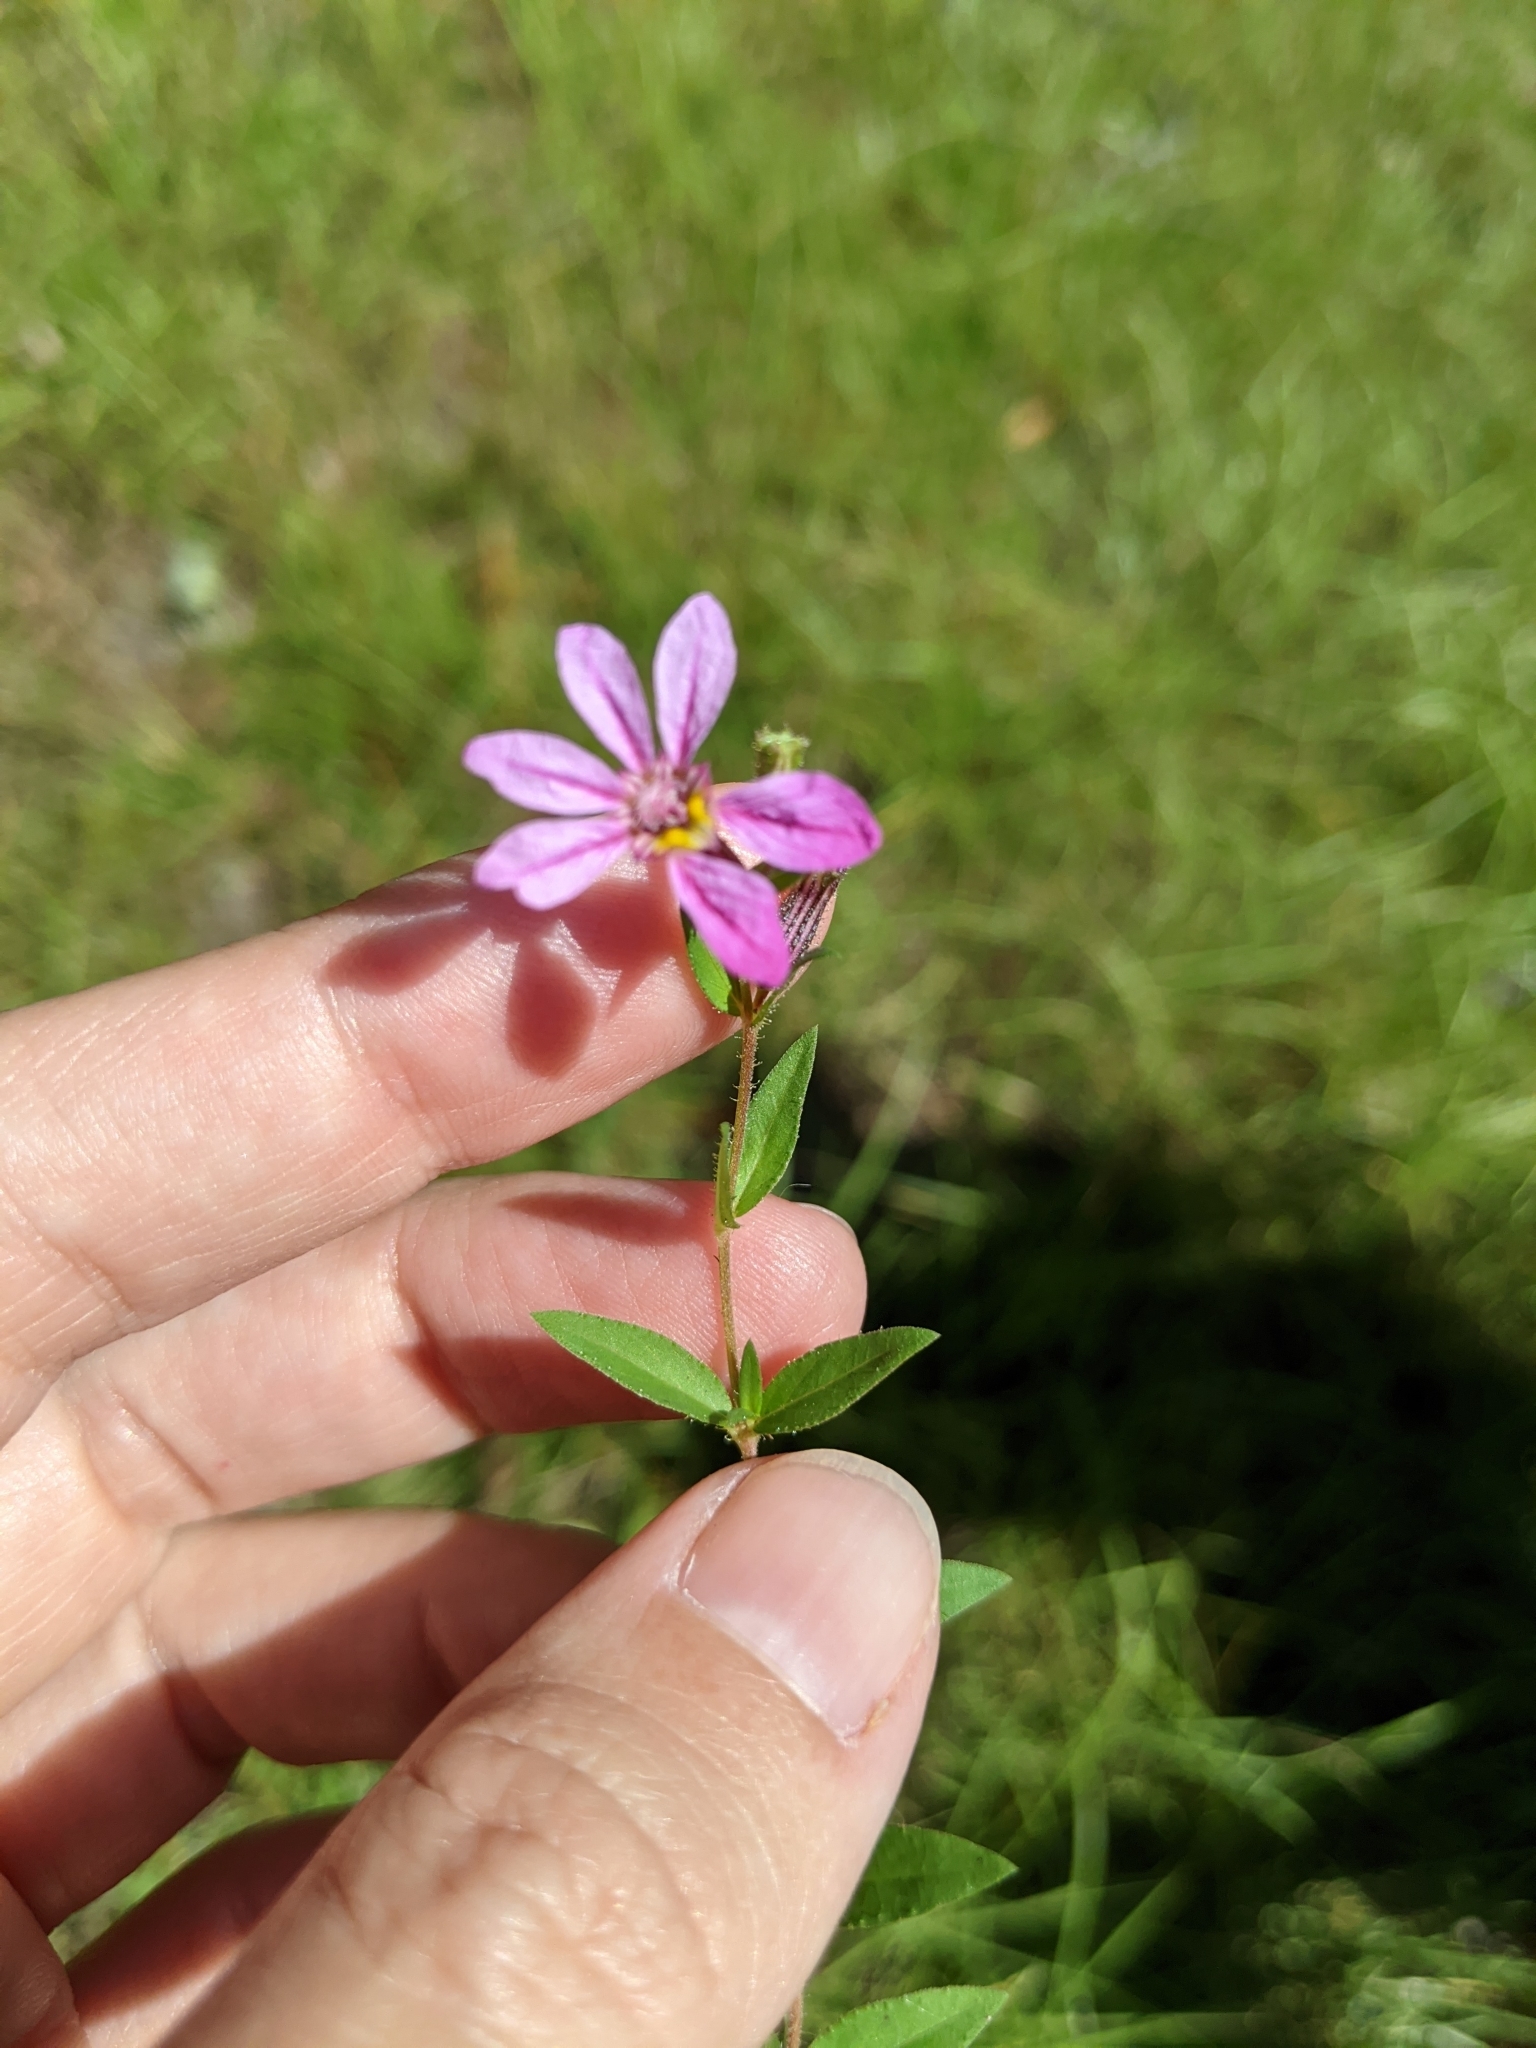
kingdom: Plantae
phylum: Tracheophyta
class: Magnoliopsida
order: Myrtales
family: Lythraceae
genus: Cuphea
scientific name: Cuphea glutinosa
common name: Sticky waxweed
